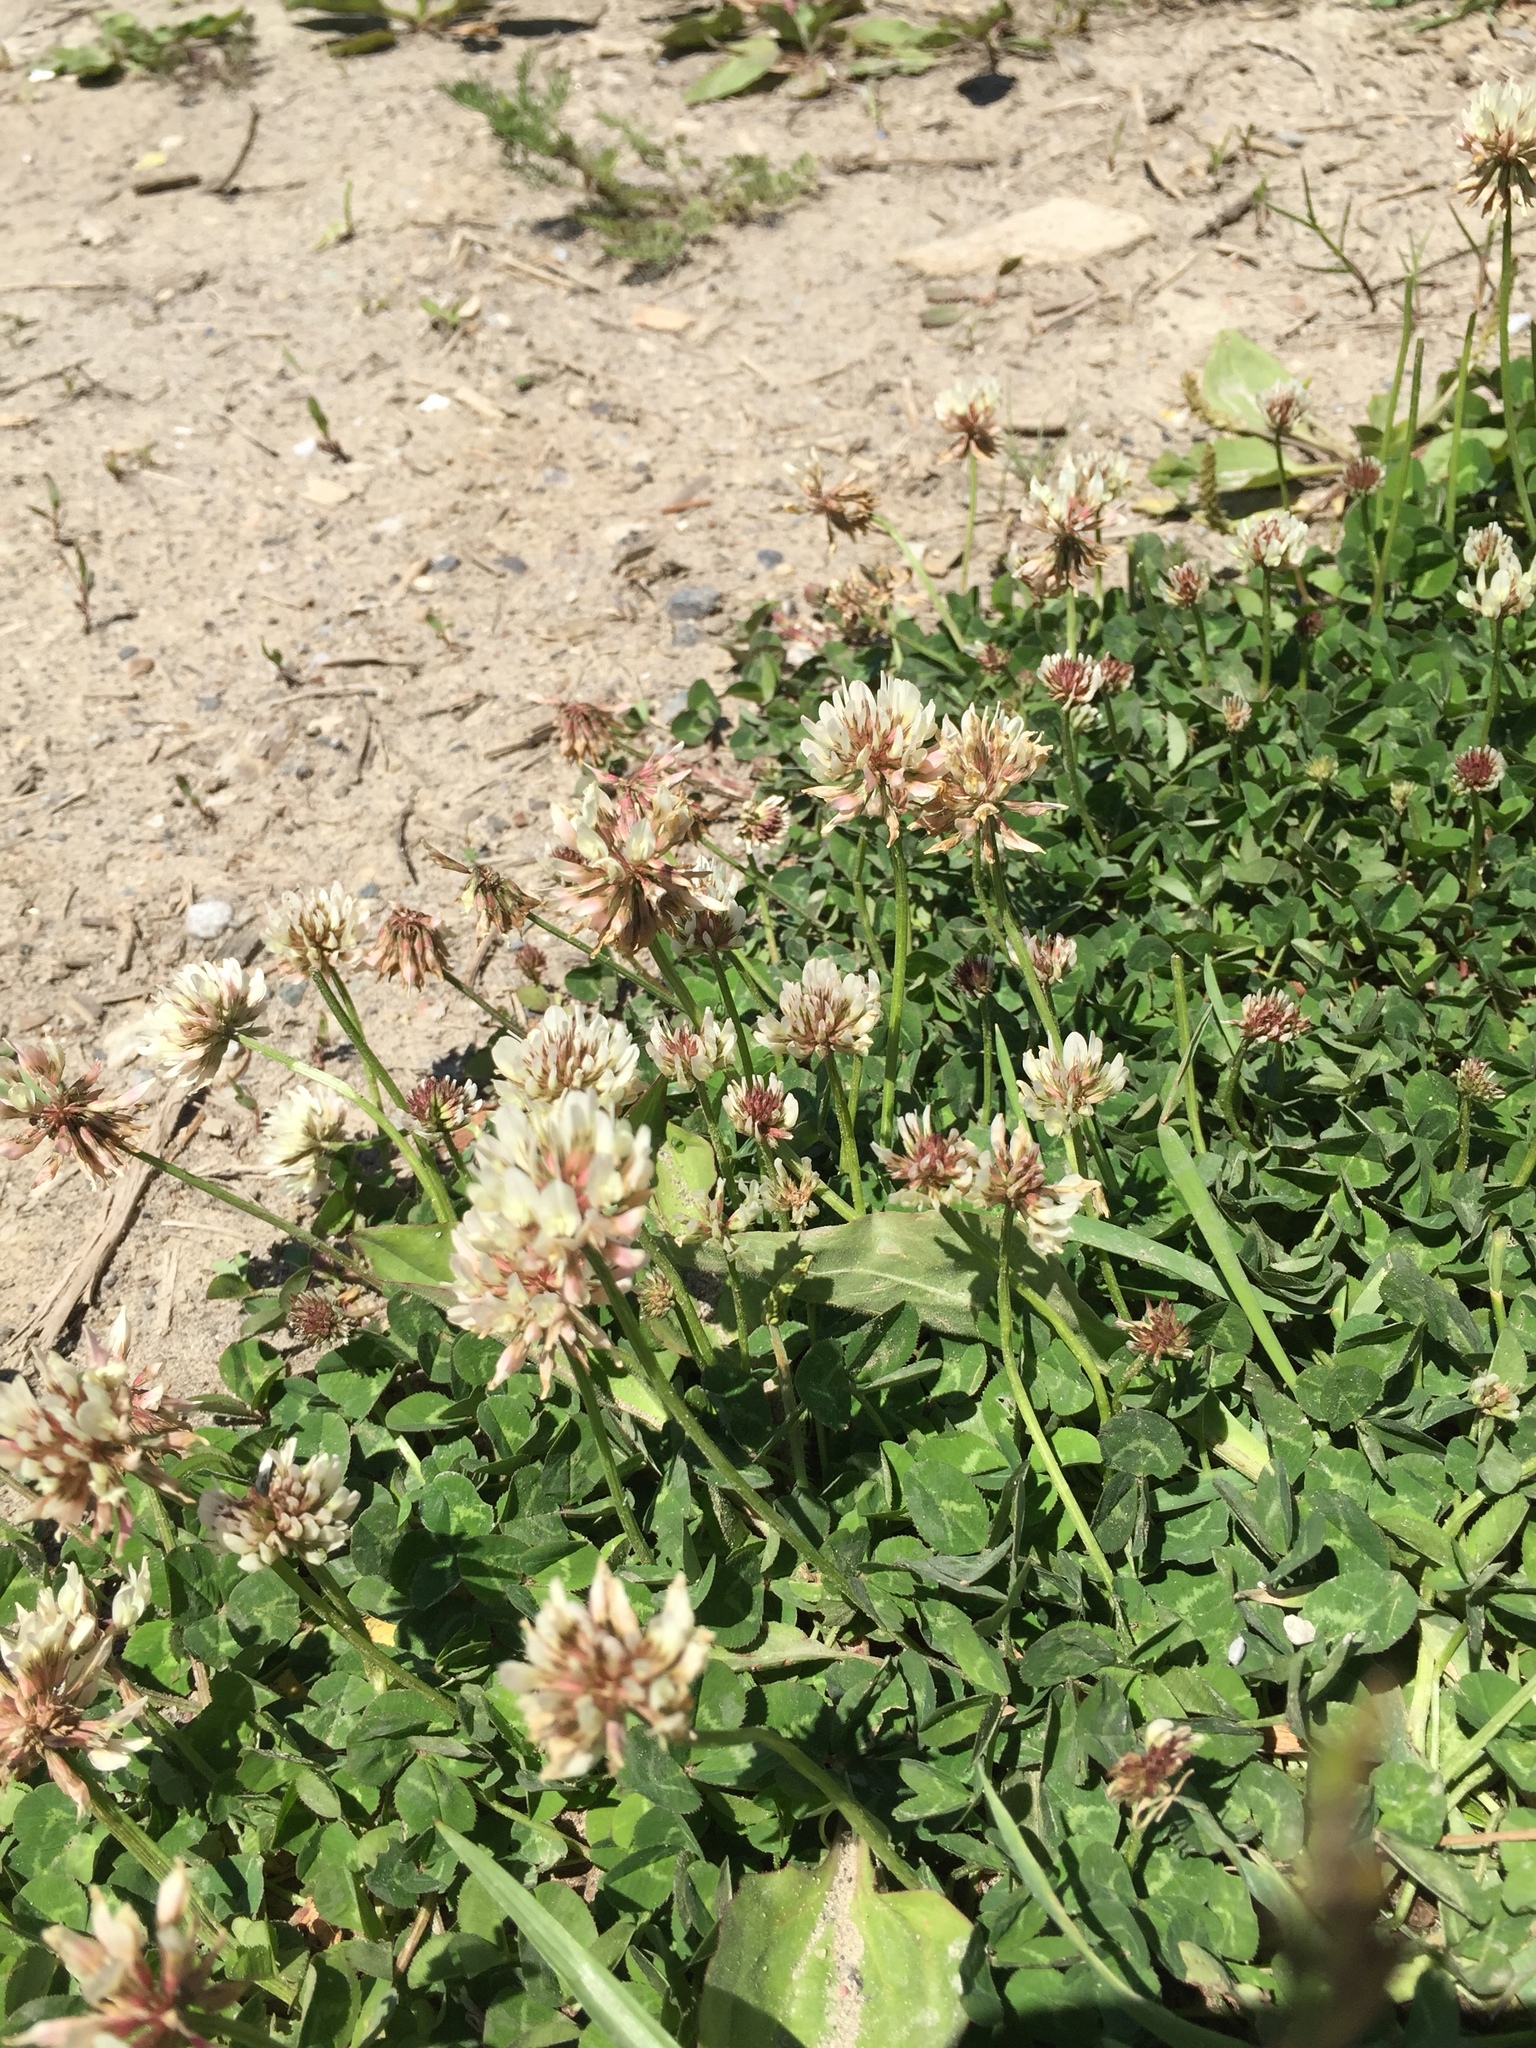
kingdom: Plantae
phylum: Tracheophyta
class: Magnoliopsida
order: Fabales
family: Fabaceae
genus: Trifolium
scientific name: Trifolium repens
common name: White clover
